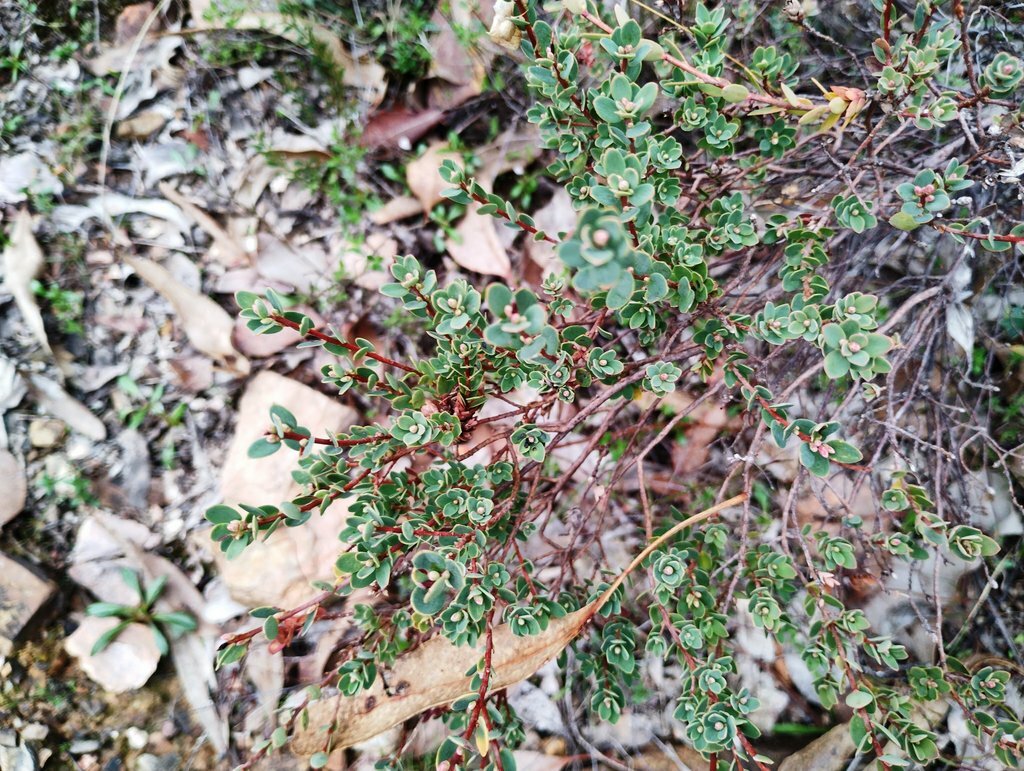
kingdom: Plantae
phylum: Tracheophyta
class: Magnoliopsida
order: Ericales
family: Ericaceae
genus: Brachyloma
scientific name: Brachyloma daphnoides
